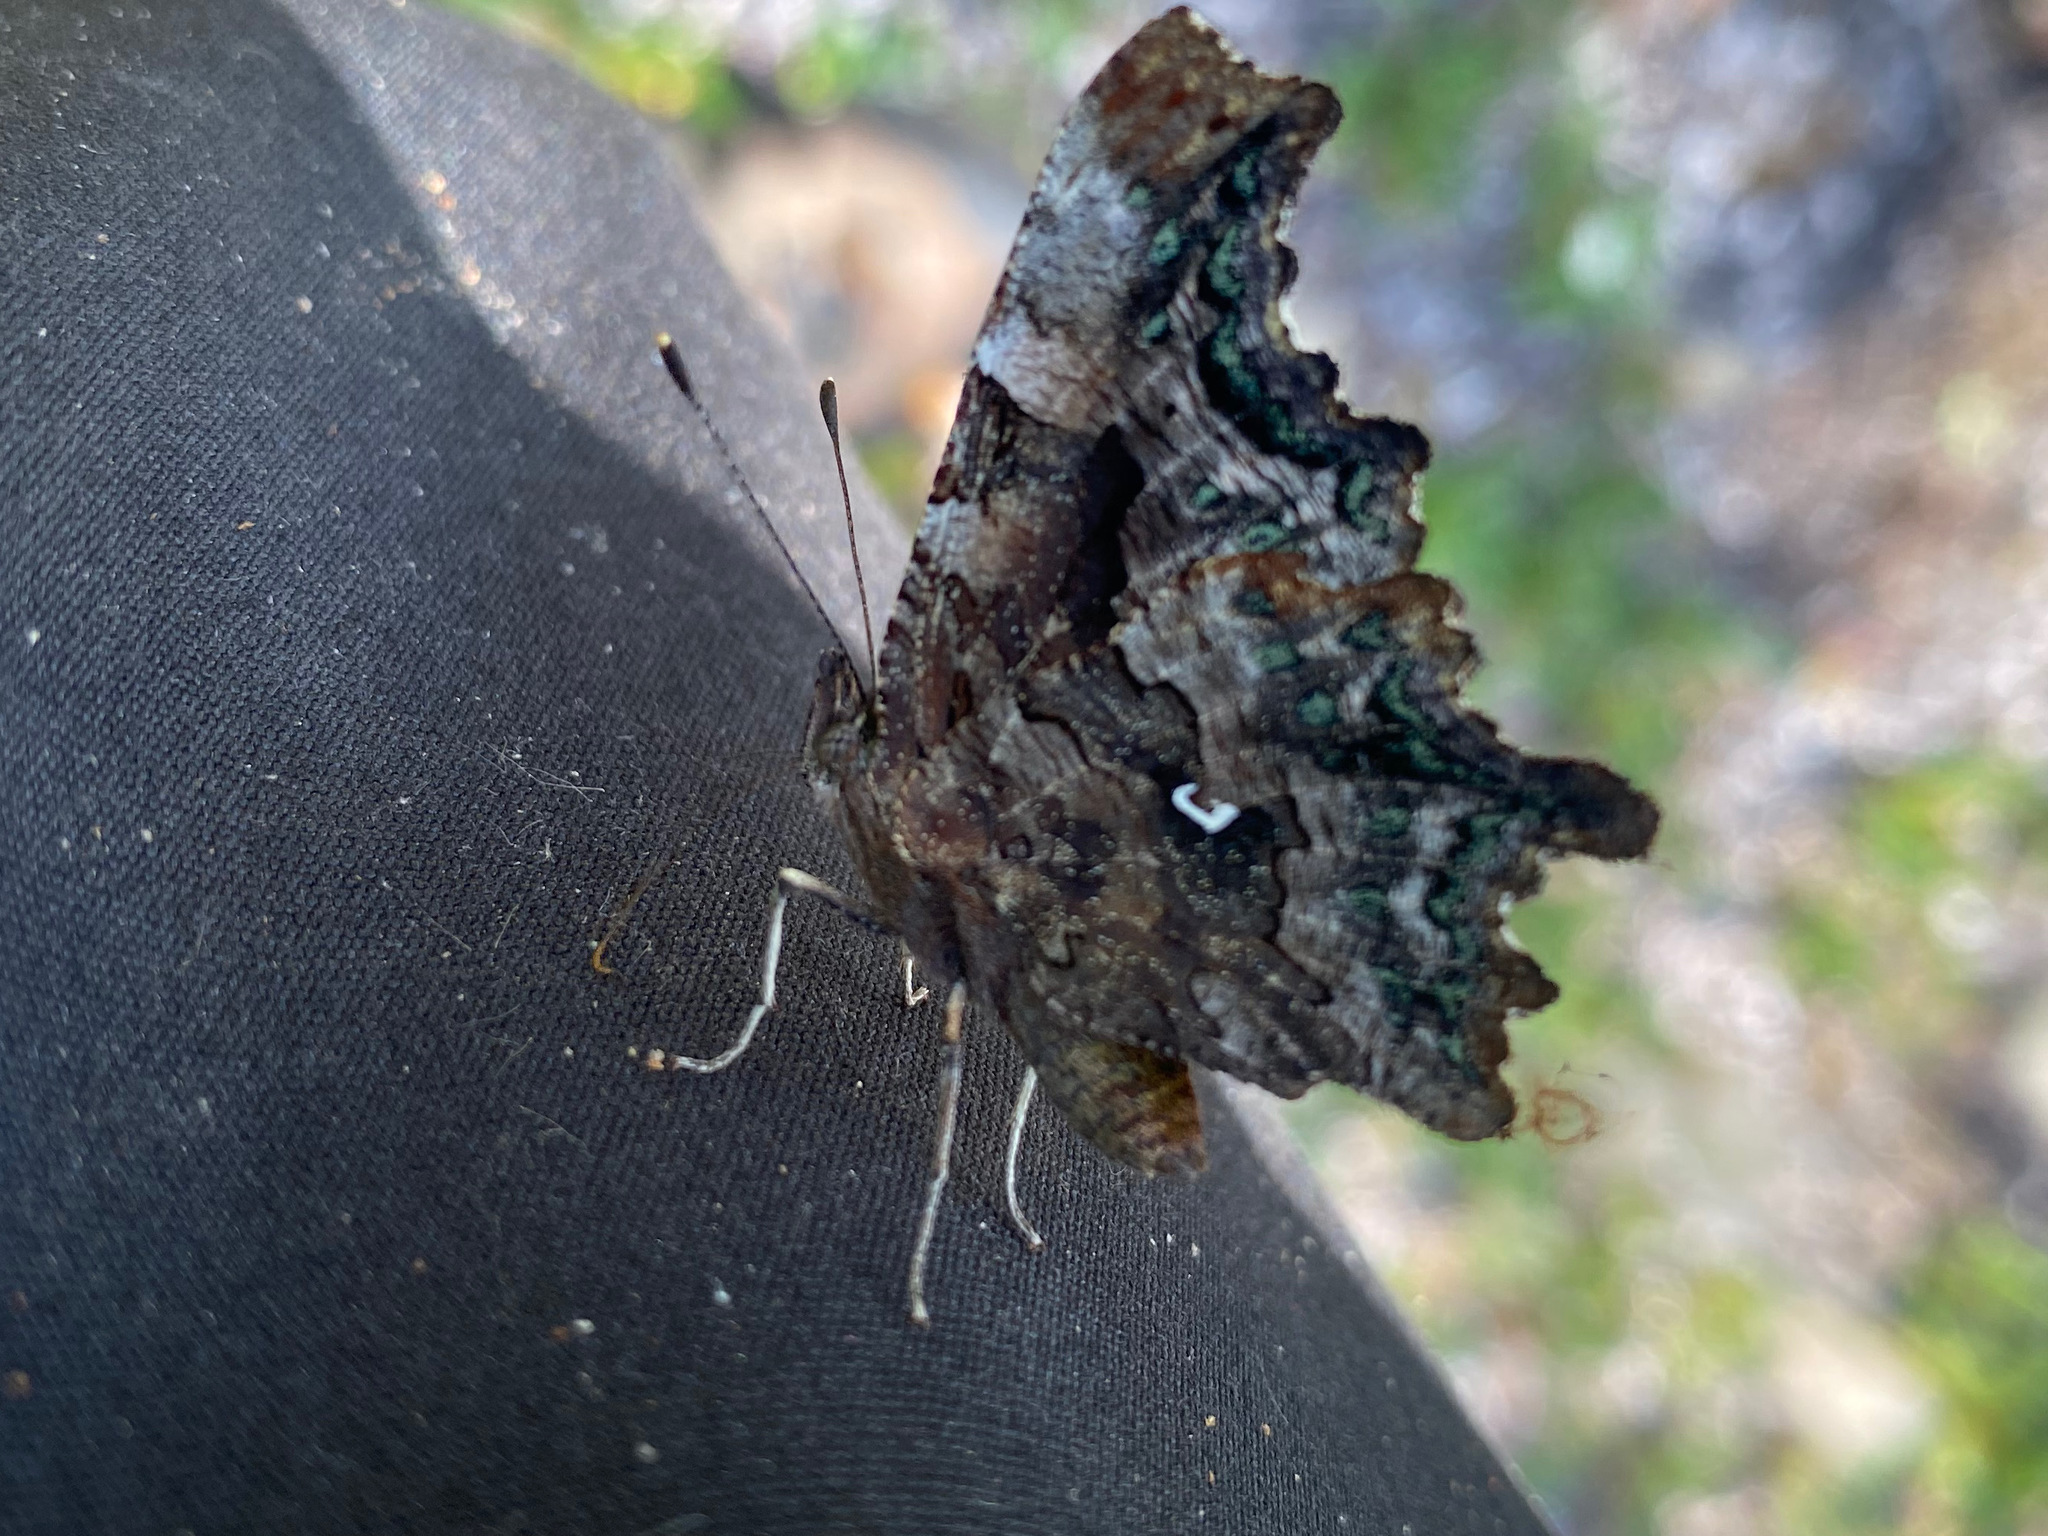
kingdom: Animalia
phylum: Arthropoda
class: Insecta
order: Lepidoptera
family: Nymphalidae
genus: Polygonia
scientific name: Polygonia faunus
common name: Green comma
